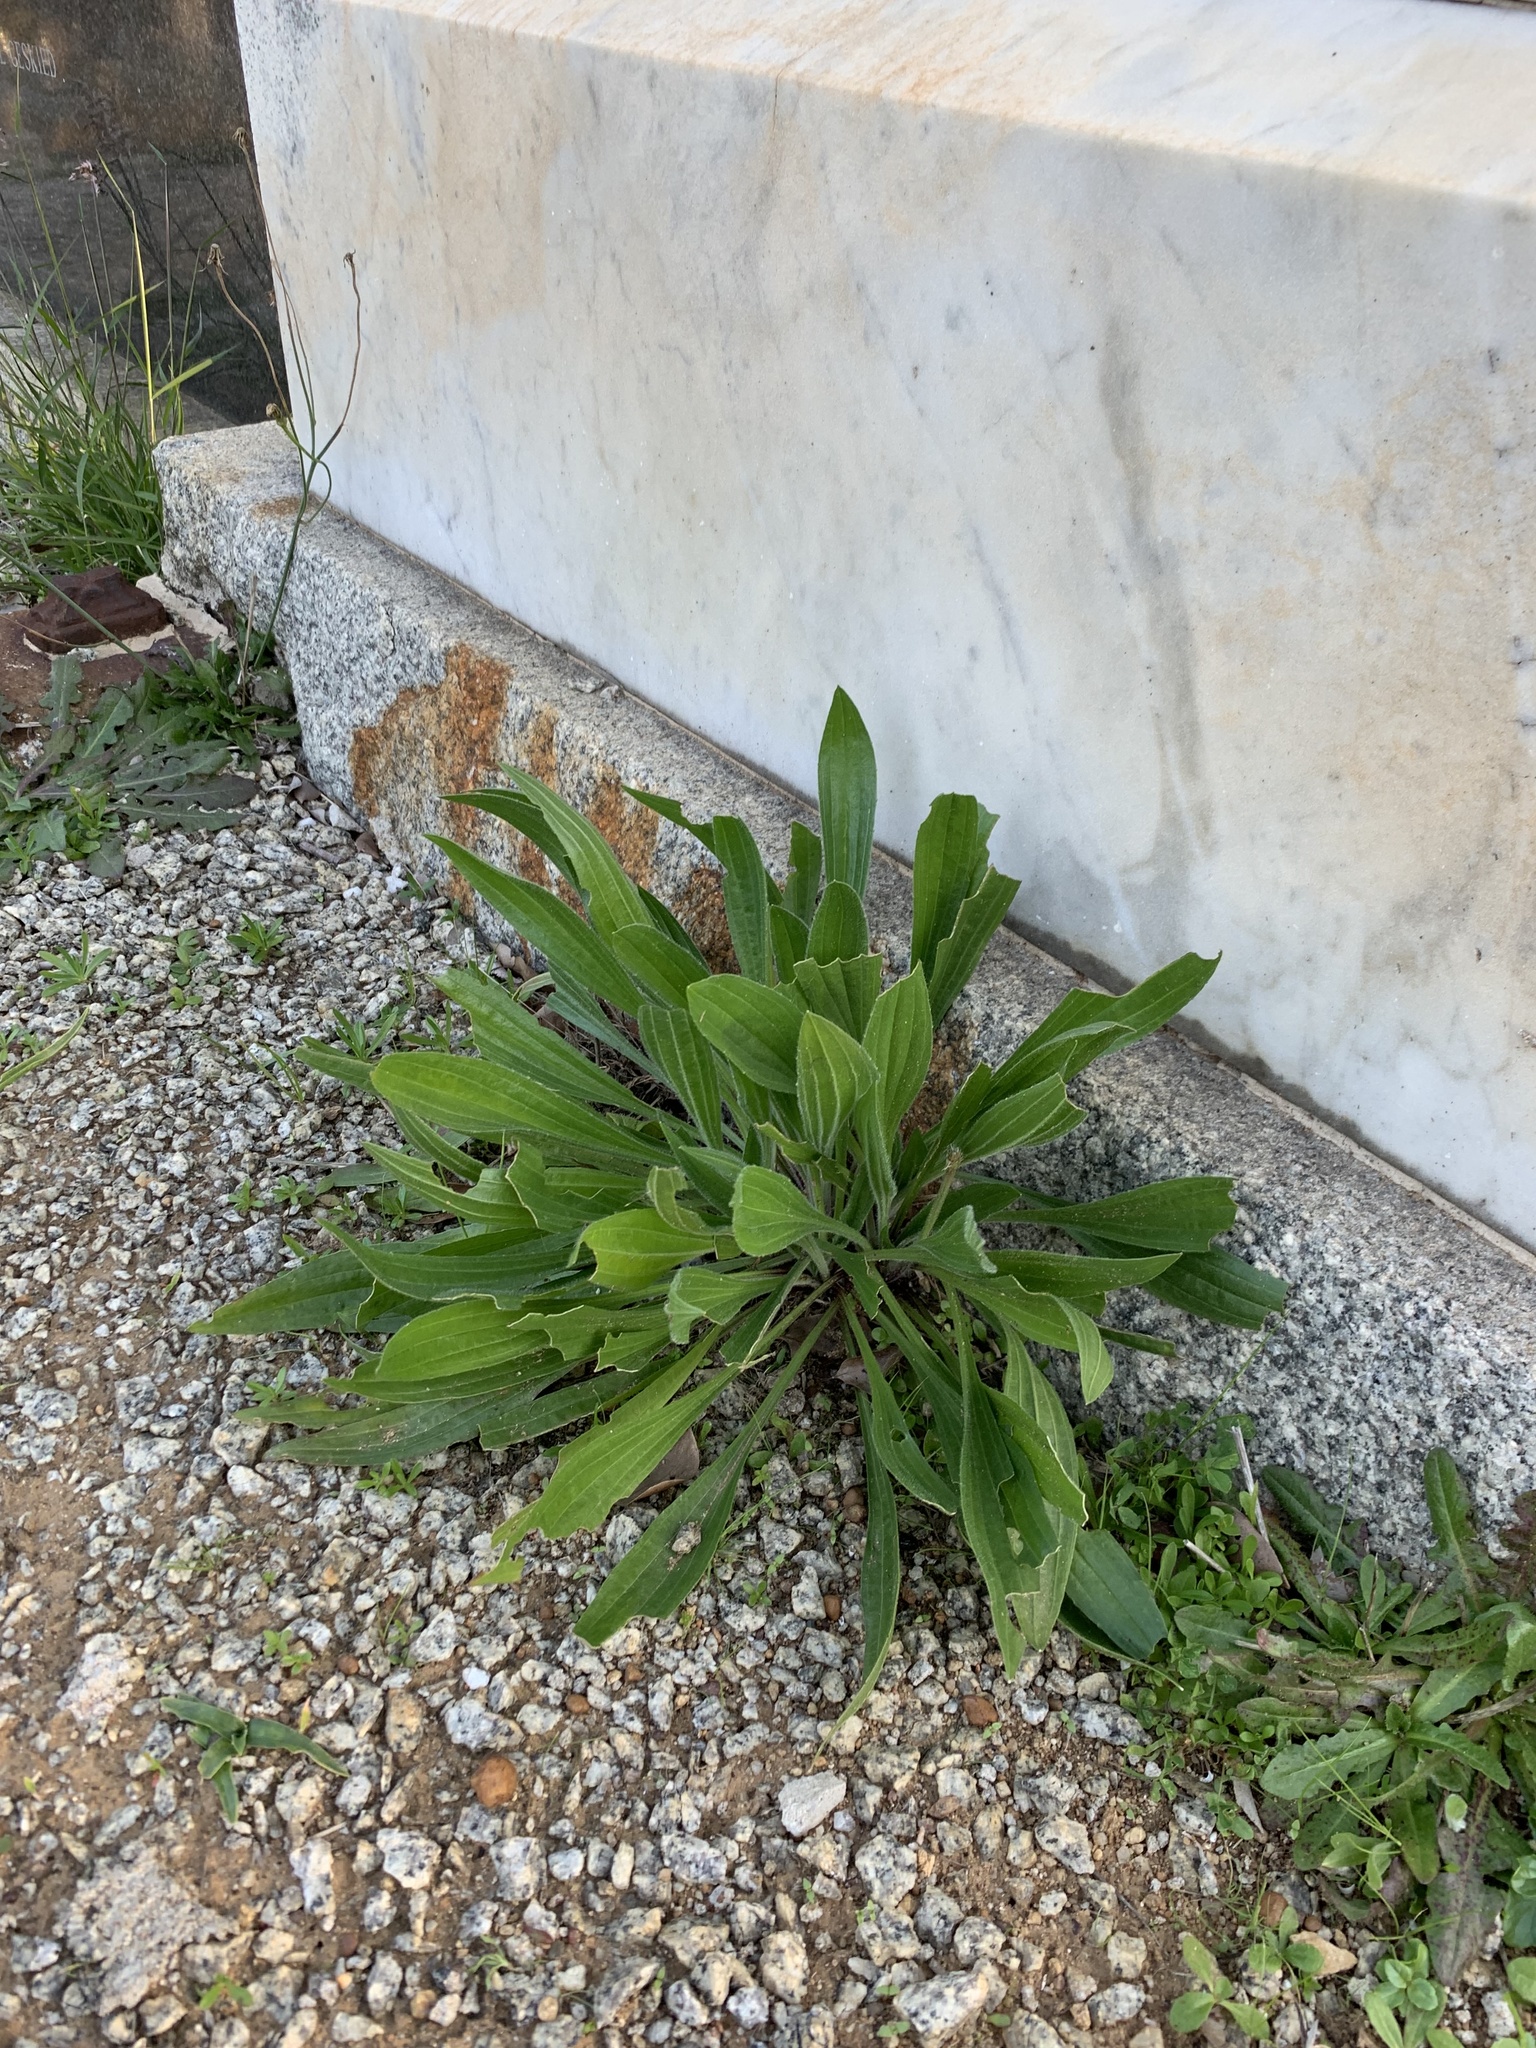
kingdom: Plantae
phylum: Tracheophyta
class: Magnoliopsida
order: Lamiales
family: Plantaginaceae
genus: Plantago
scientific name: Plantago lanceolata
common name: Ribwort plantain
